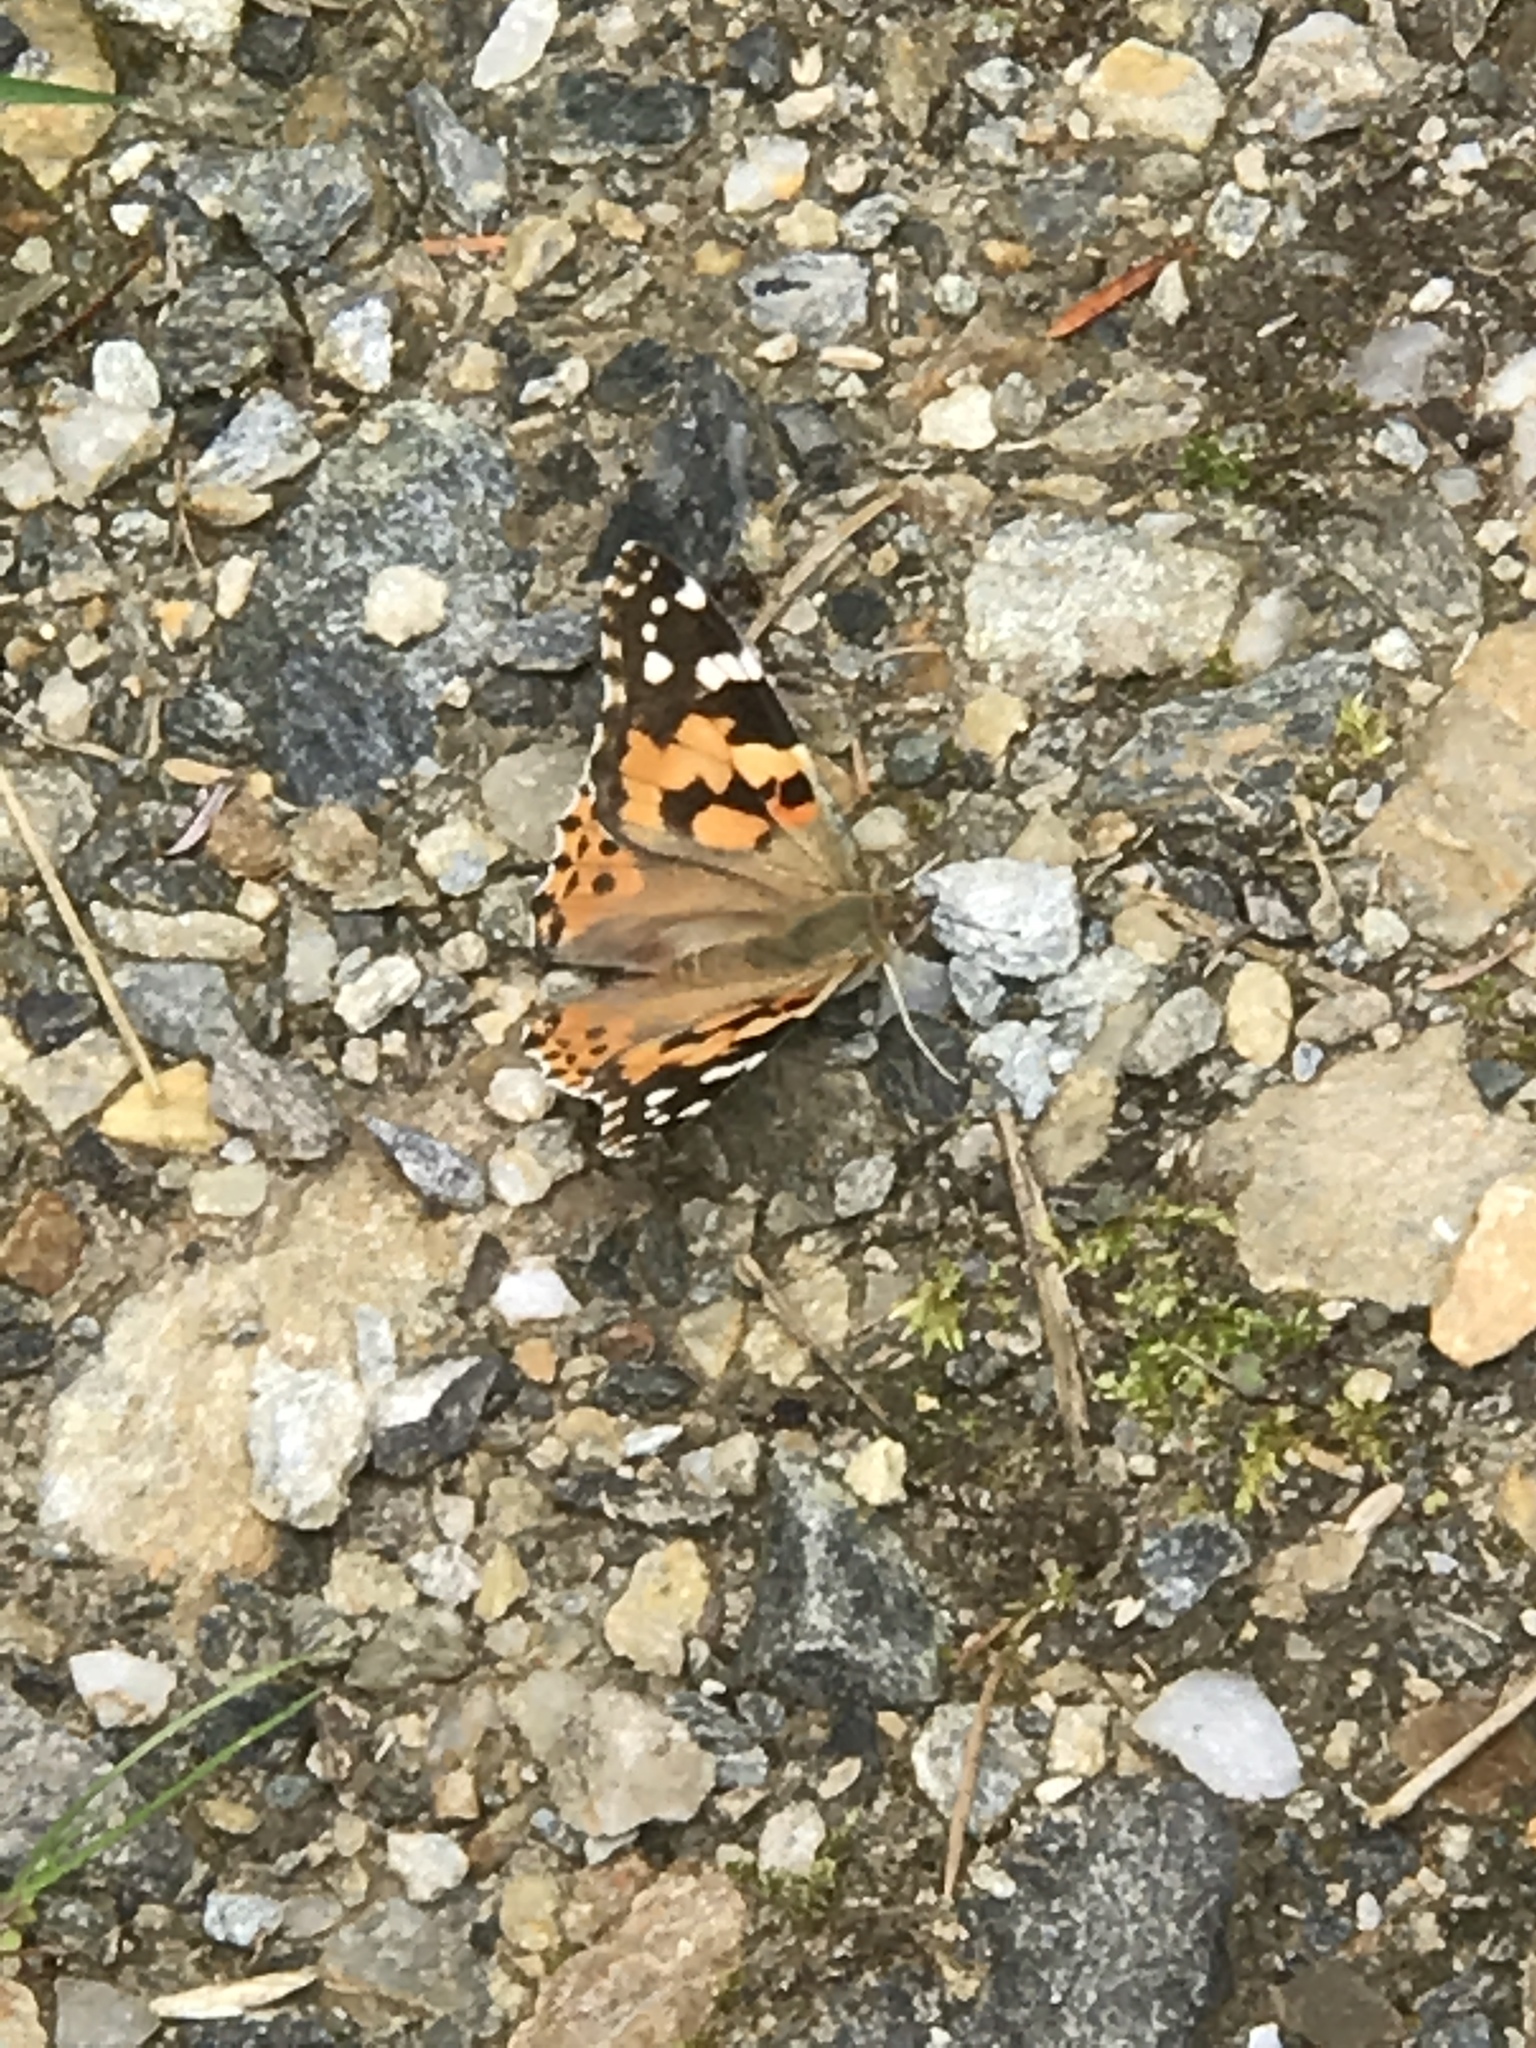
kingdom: Animalia
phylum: Arthropoda
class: Insecta
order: Lepidoptera
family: Nymphalidae
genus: Vanessa
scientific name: Vanessa cardui
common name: Painted lady
